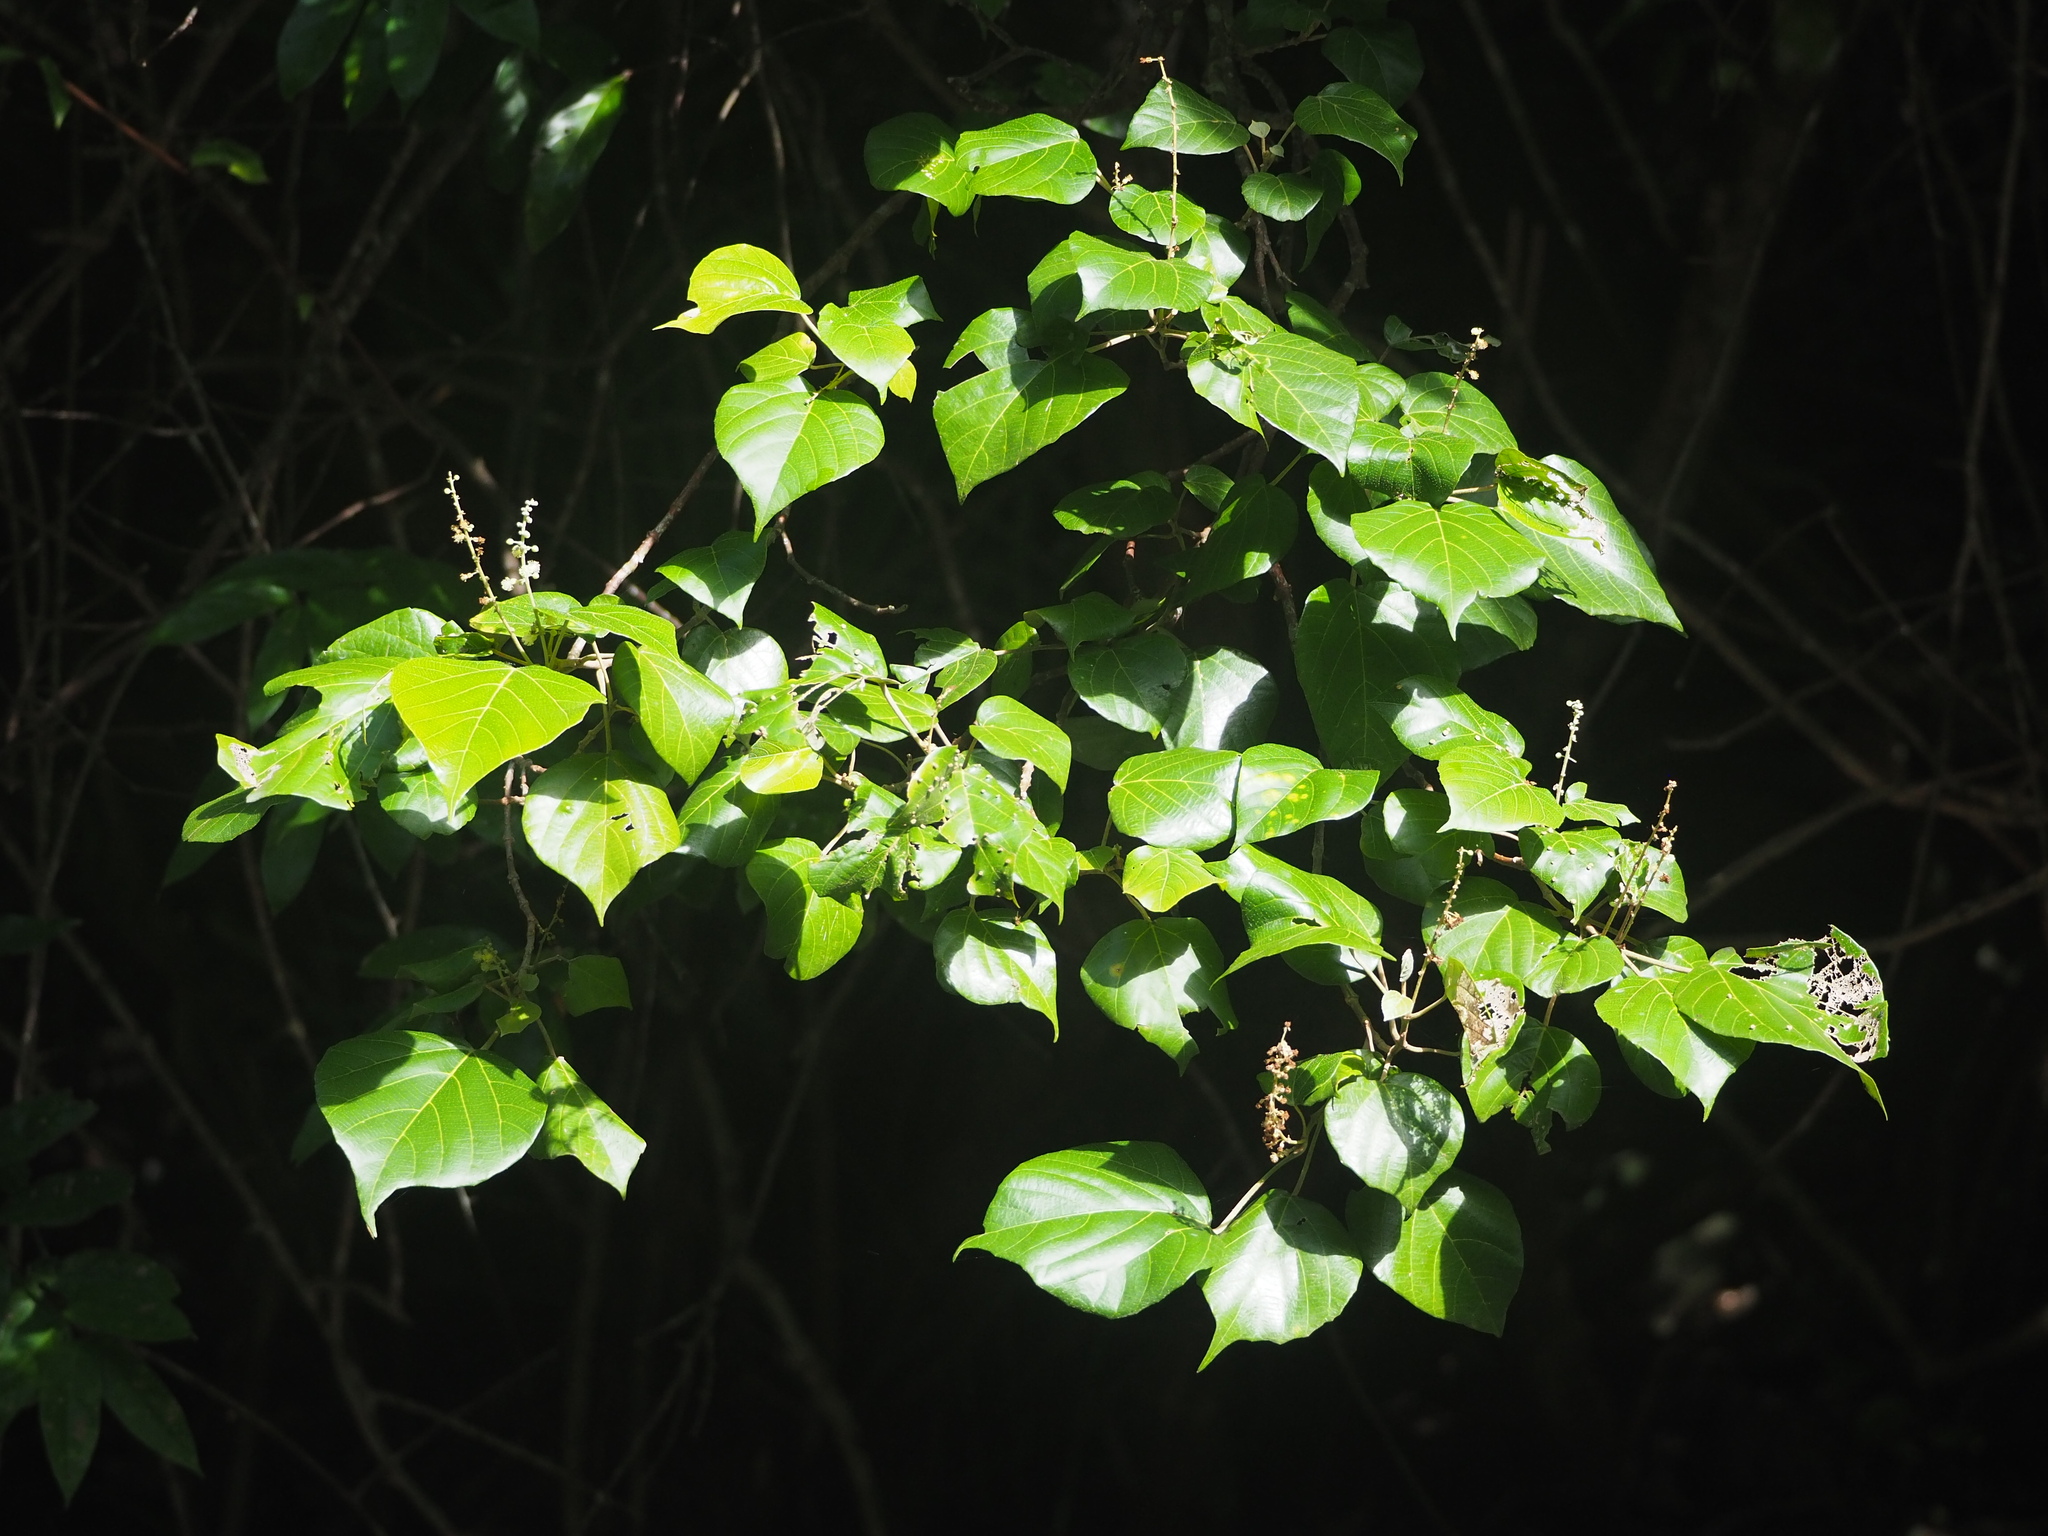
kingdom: Plantae
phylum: Tracheophyta
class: Magnoliopsida
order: Malpighiales
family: Euphorbiaceae
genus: Mallotus
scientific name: Mallotus tiliifolius
